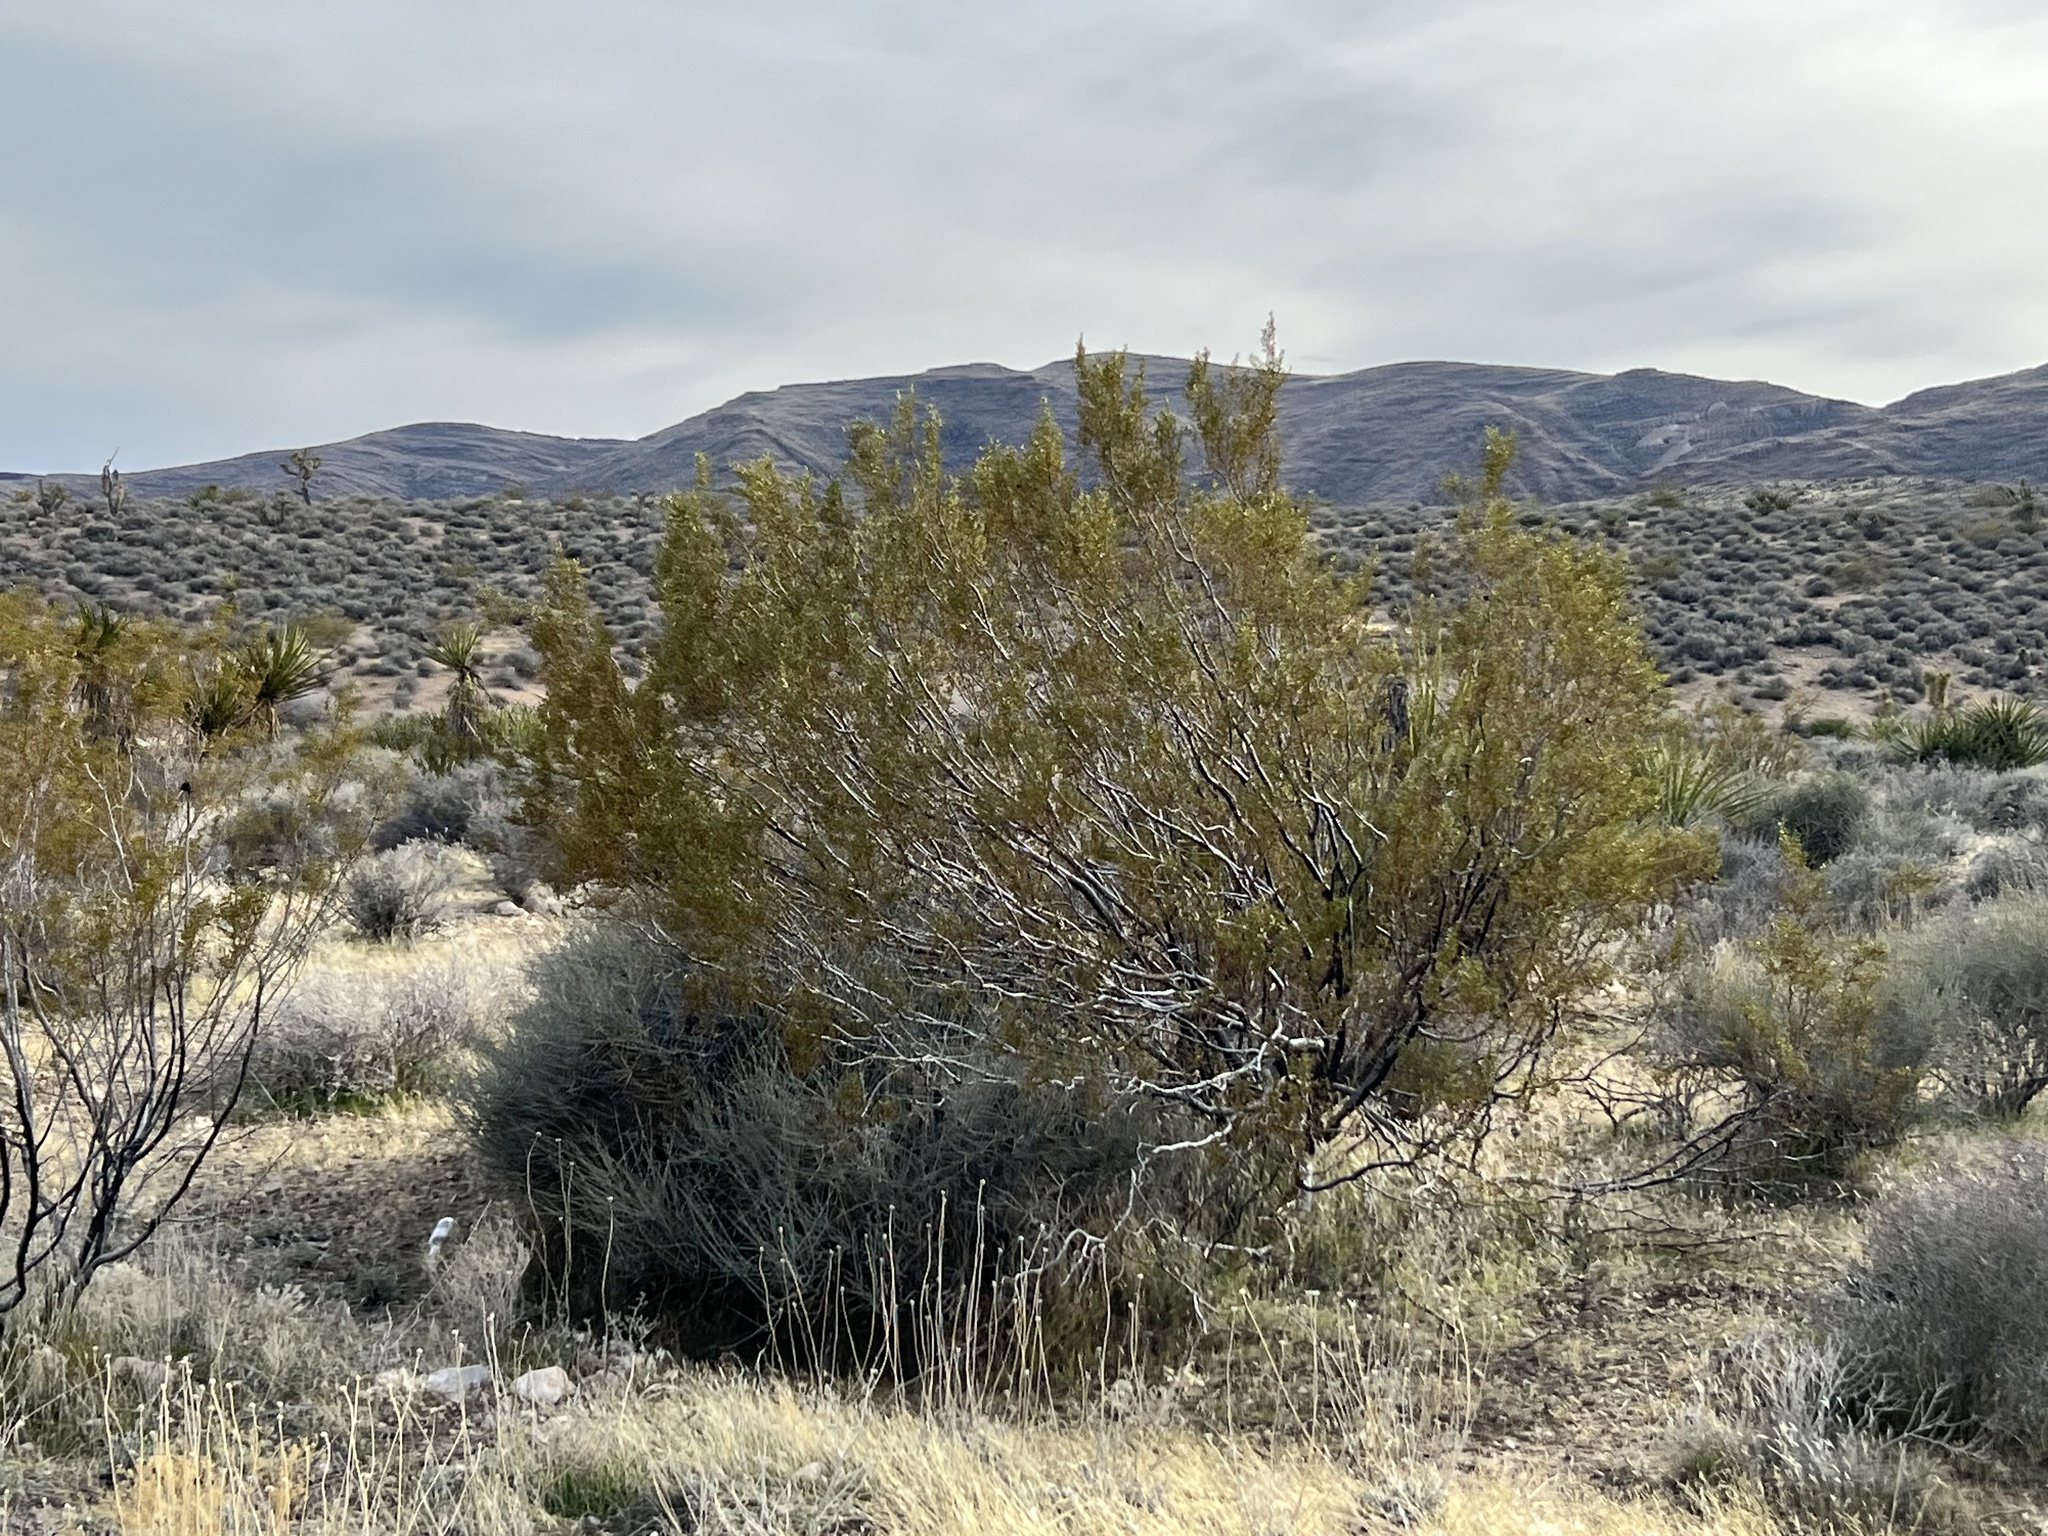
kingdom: Plantae
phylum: Tracheophyta
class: Magnoliopsida
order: Zygophyllales
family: Zygophyllaceae
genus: Larrea
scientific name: Larrea tridentata
